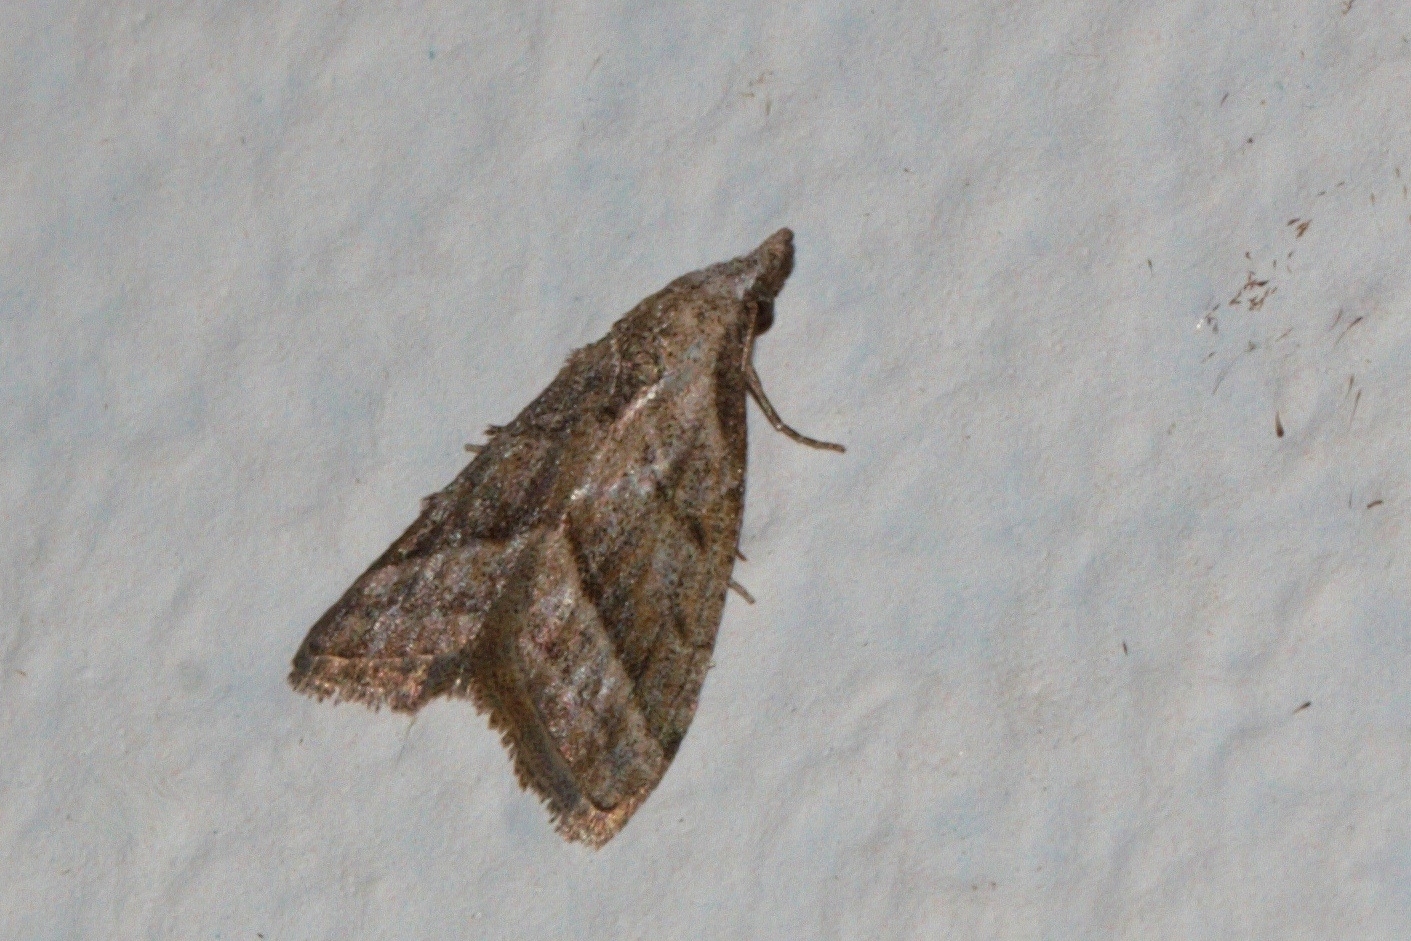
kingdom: Animalia
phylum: Arthropoda
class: Insecta
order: Lepidoptera
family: Nolidae
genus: Nola
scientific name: Nola imitata
